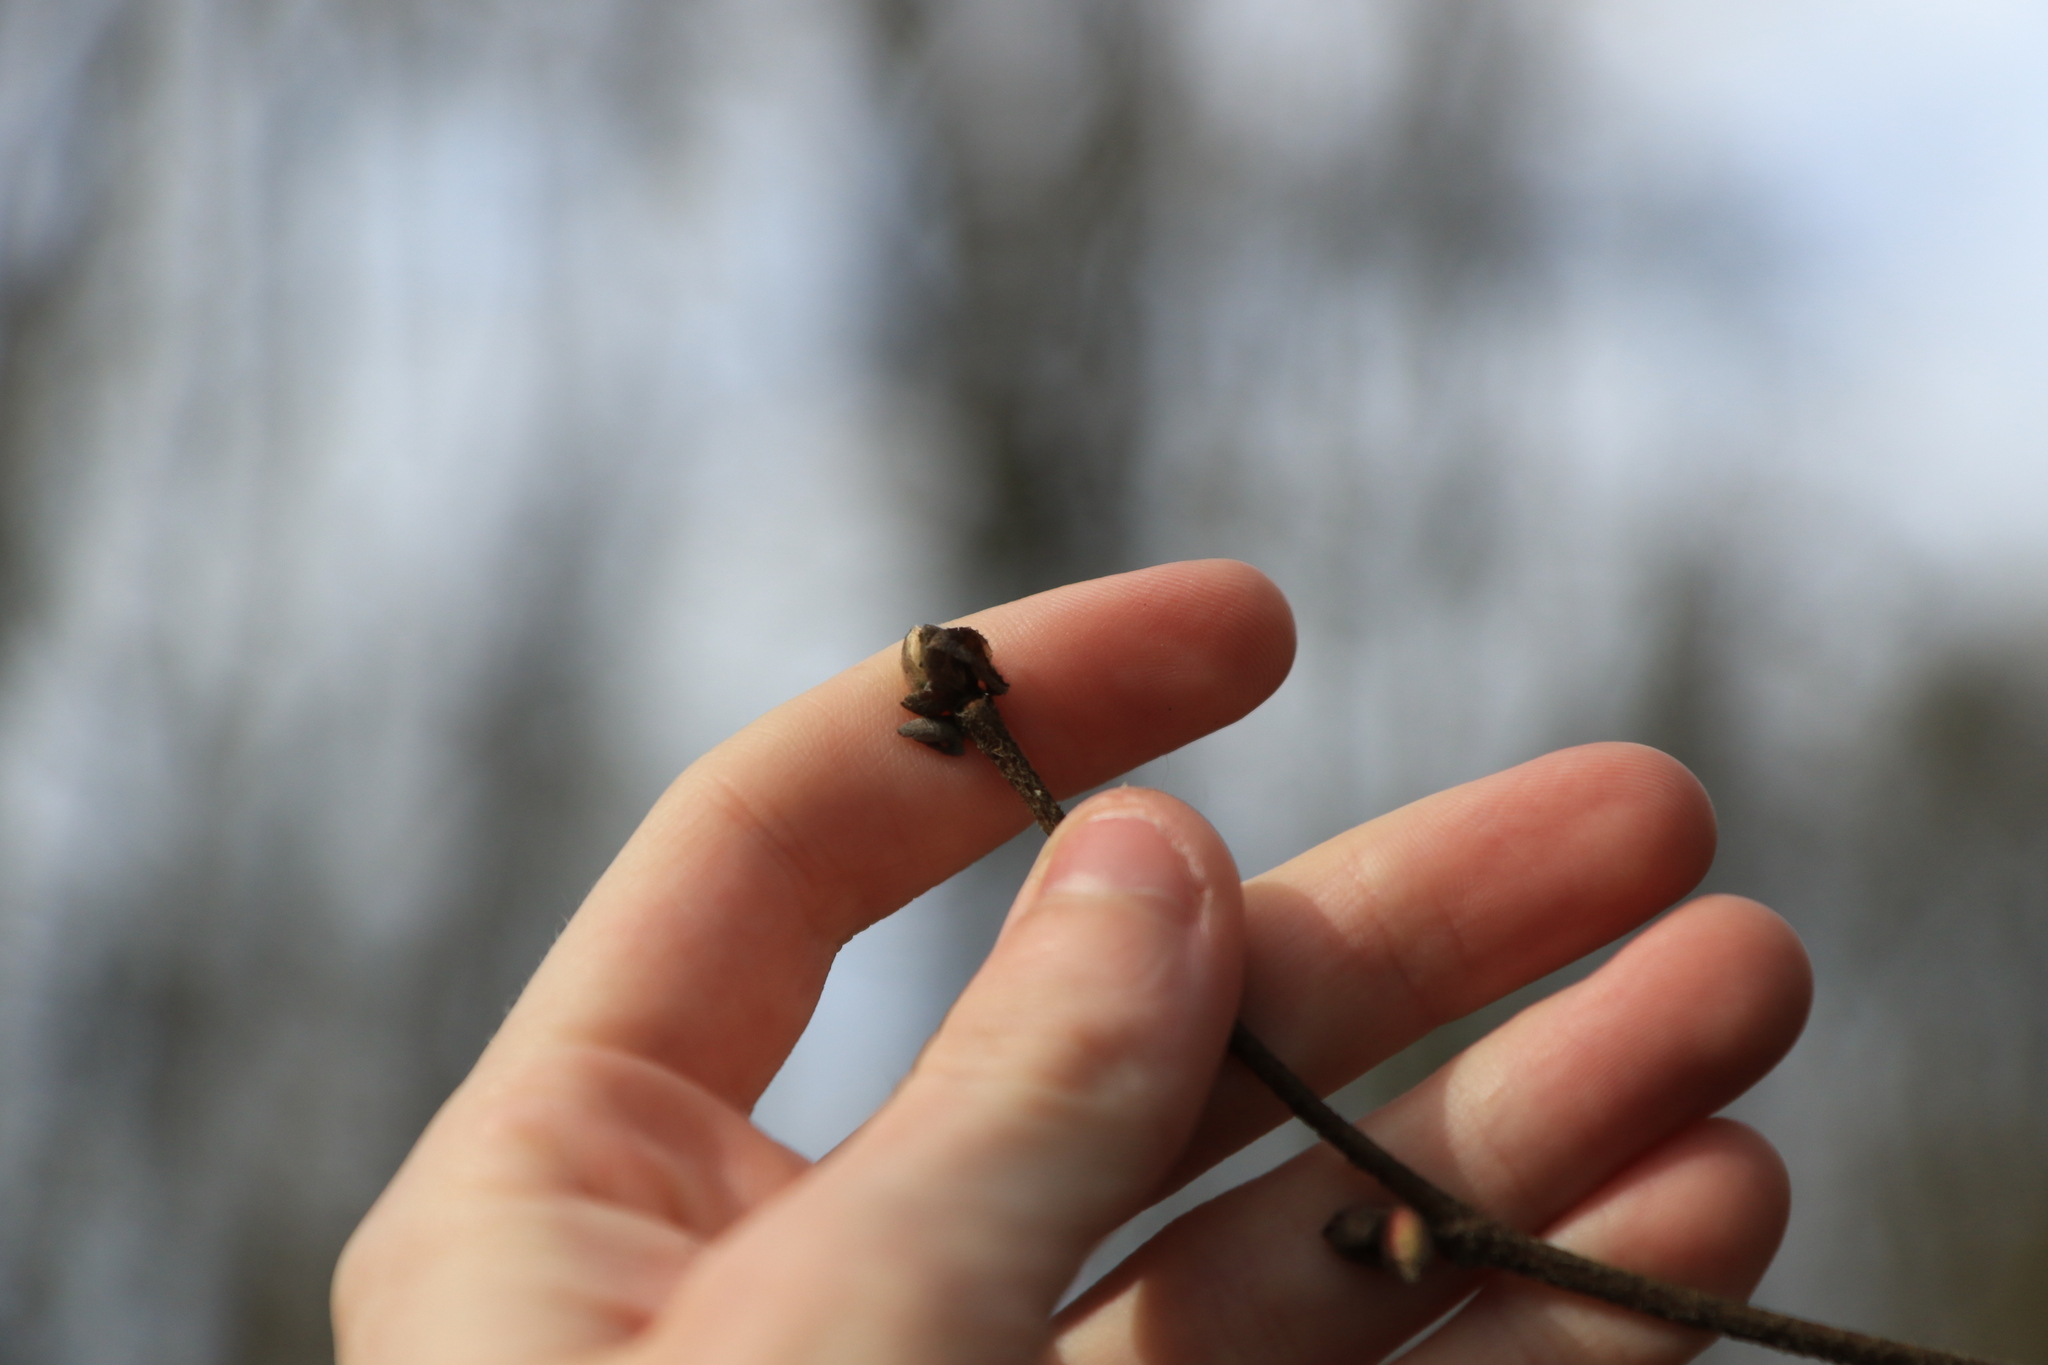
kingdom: Plantae
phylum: Tracheophyta
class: Magnoliopsida
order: Fagales
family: Betulaceae
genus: Corylus
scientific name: Corylus cornuta
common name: Beaked hazel
